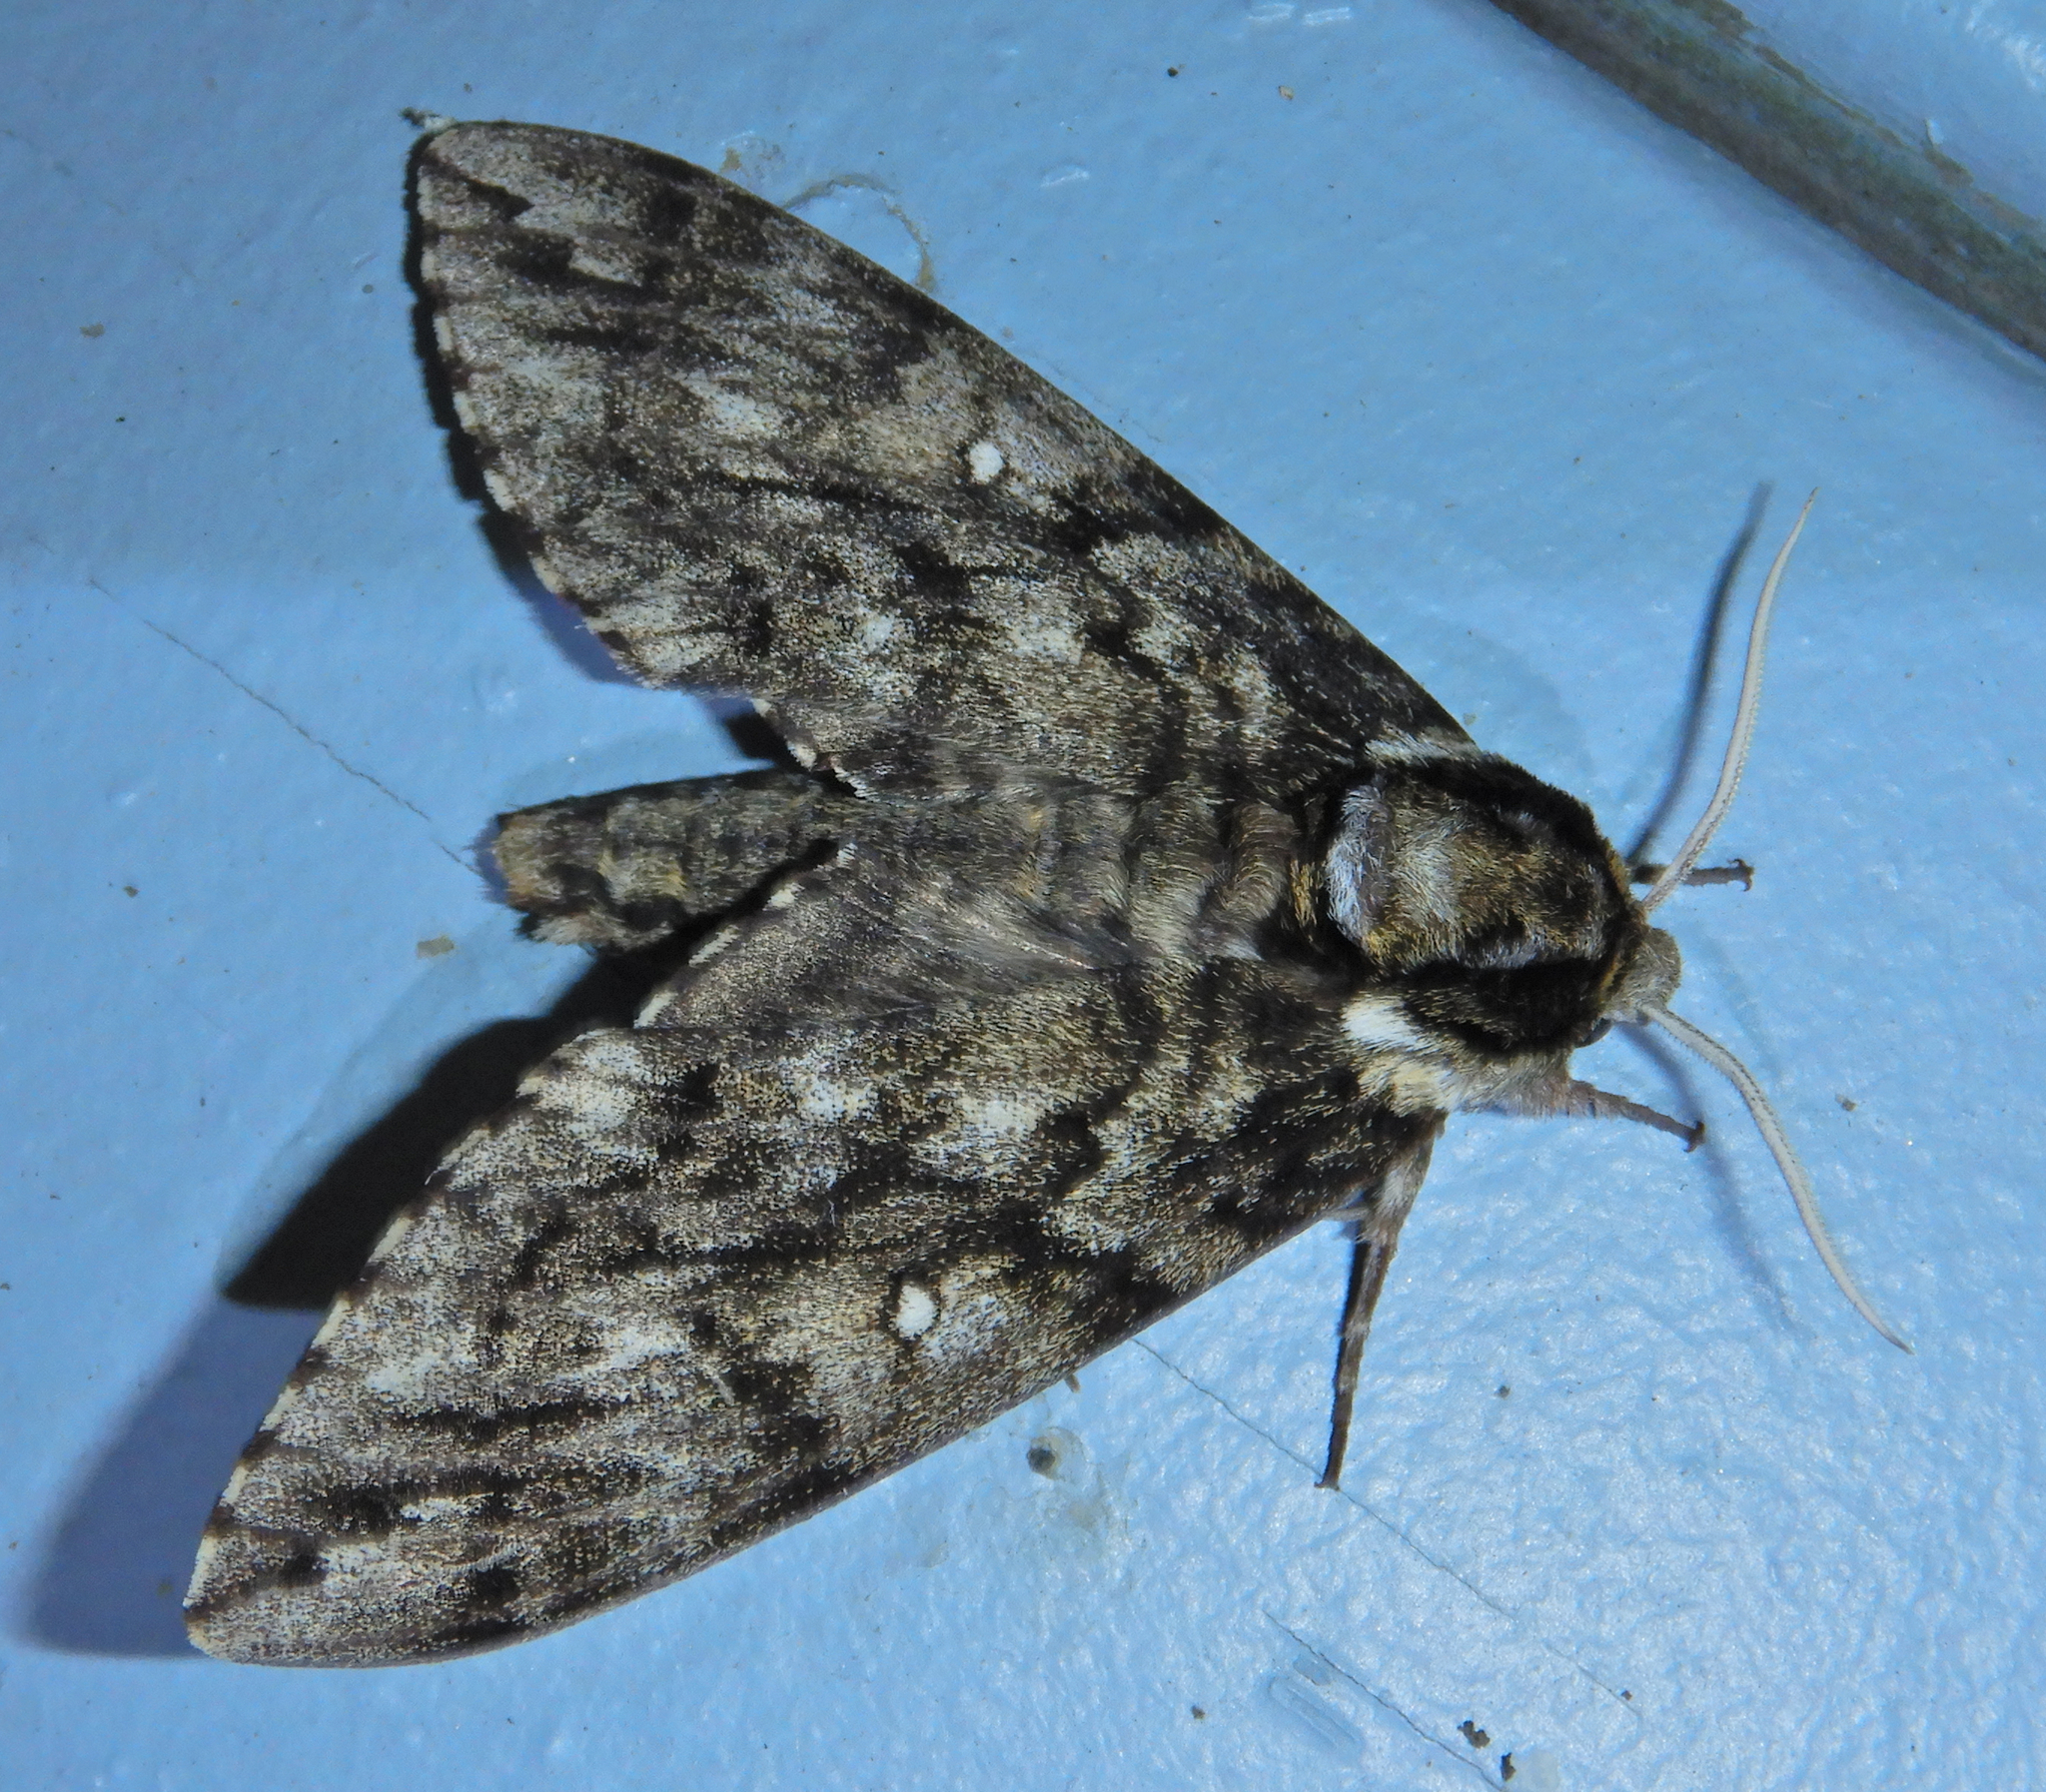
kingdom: Animalia
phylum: Arthropoda
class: Insecta
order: Lepidoptera
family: Sphingidae
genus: Ceratomia
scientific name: Ceratomia undulosa
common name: Waved sphinx
